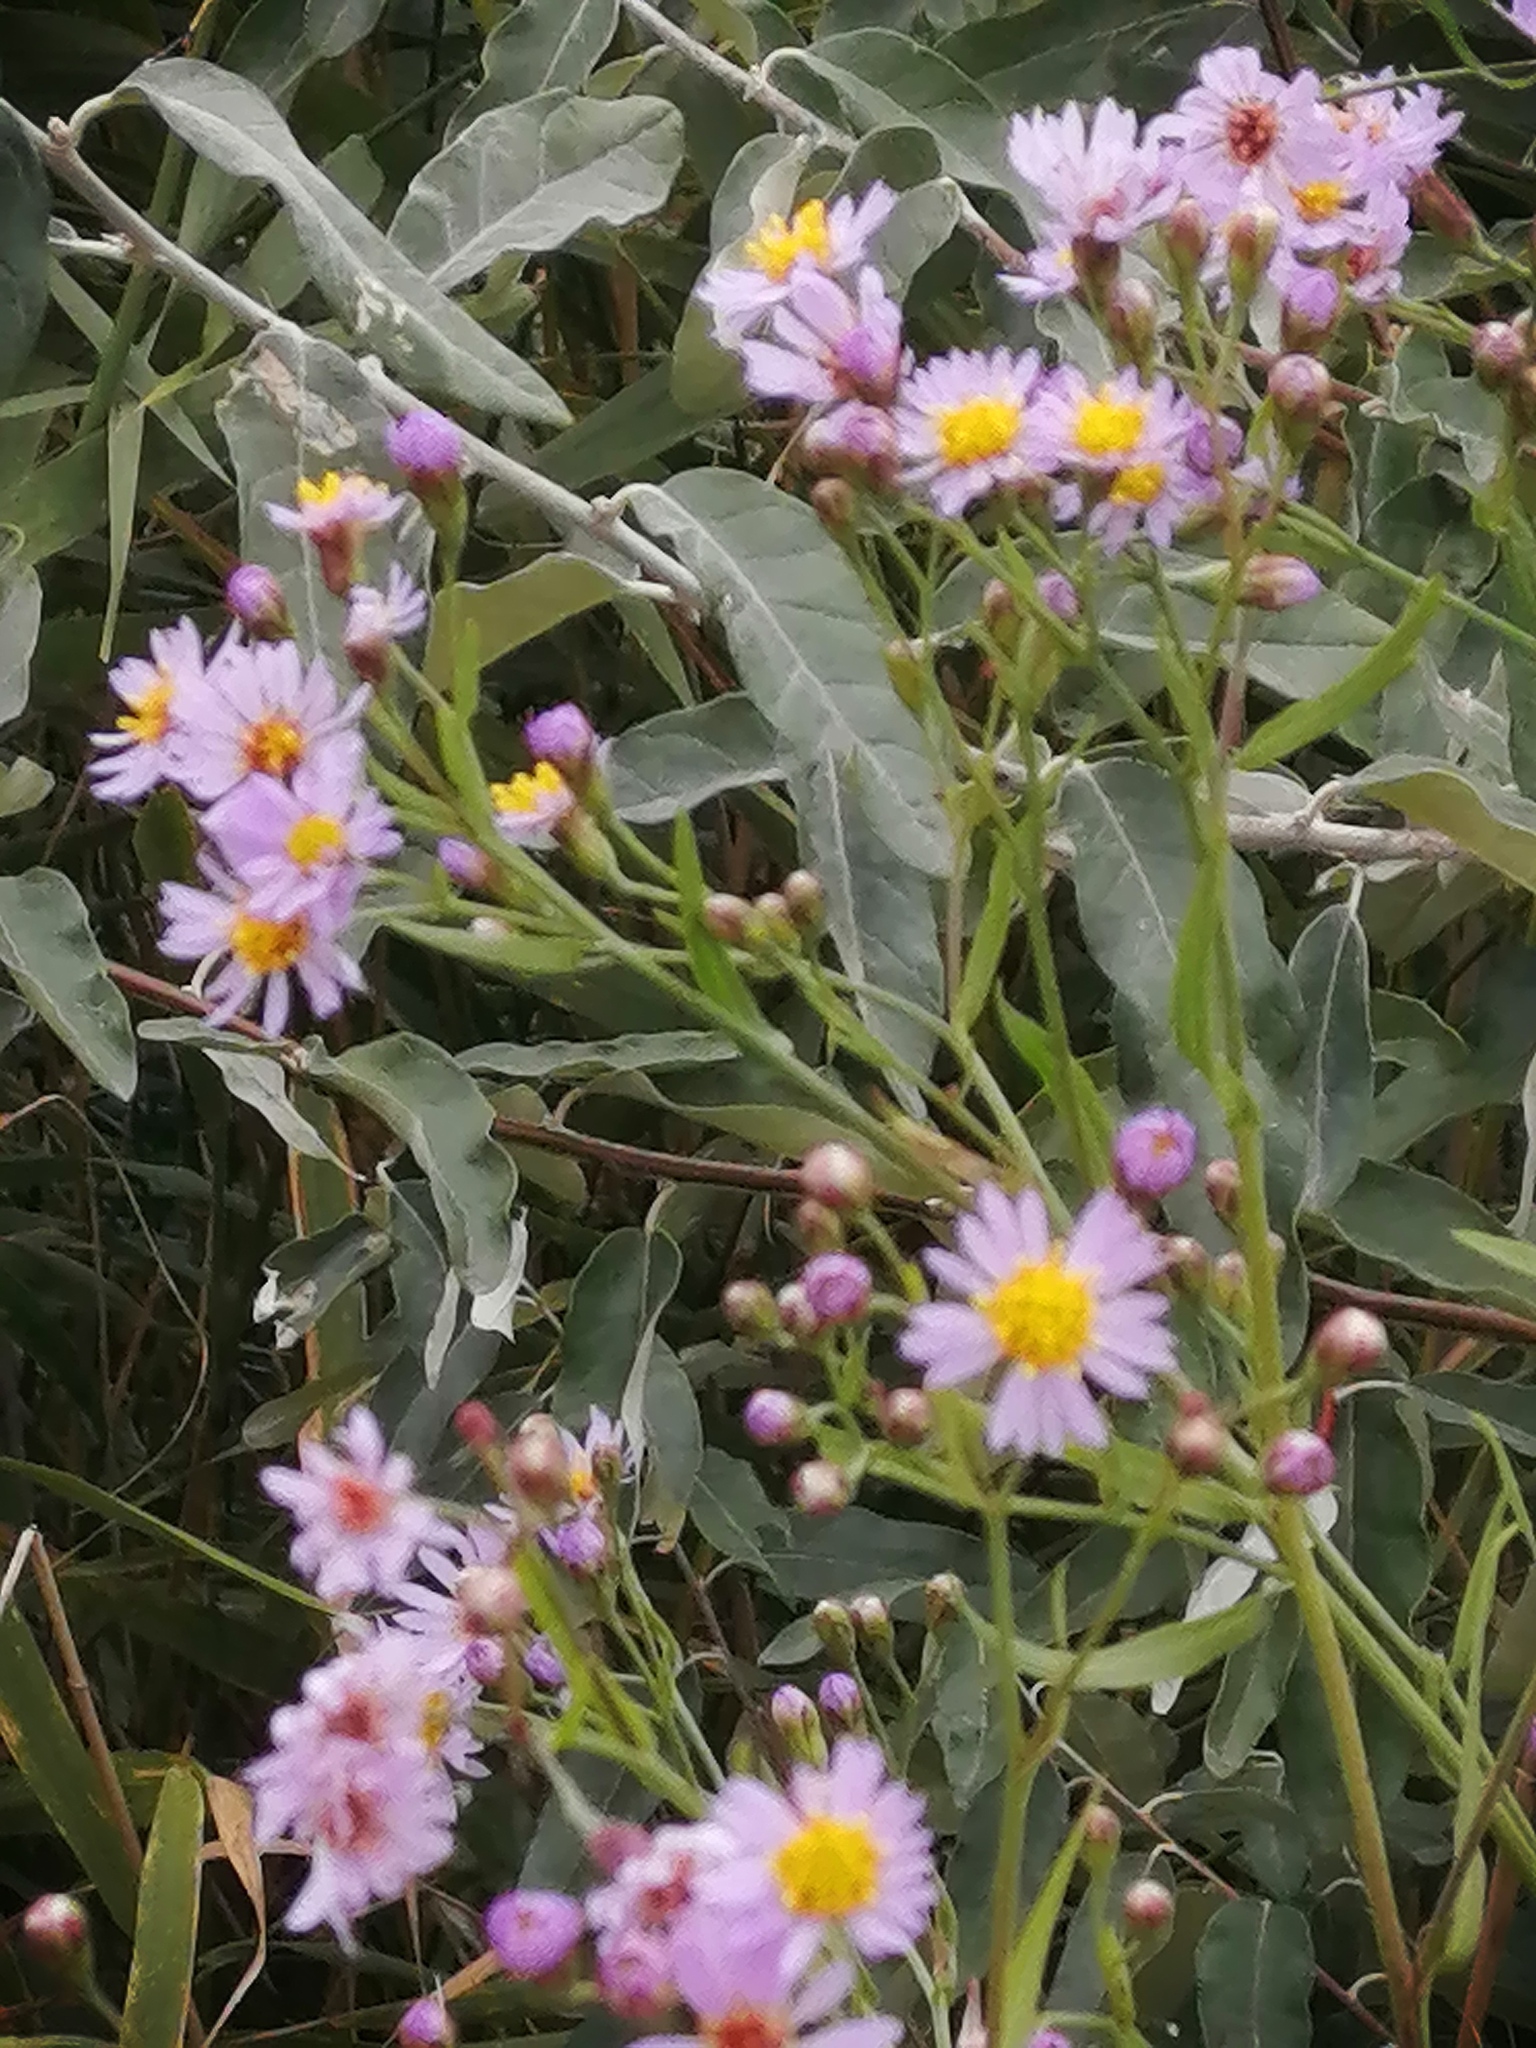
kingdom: Plantae
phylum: Tracheophyta
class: Magnoliopsida
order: Asterales
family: Asteraceae
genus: Tripolium
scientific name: Tripolium pannonicum
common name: Sea aster
